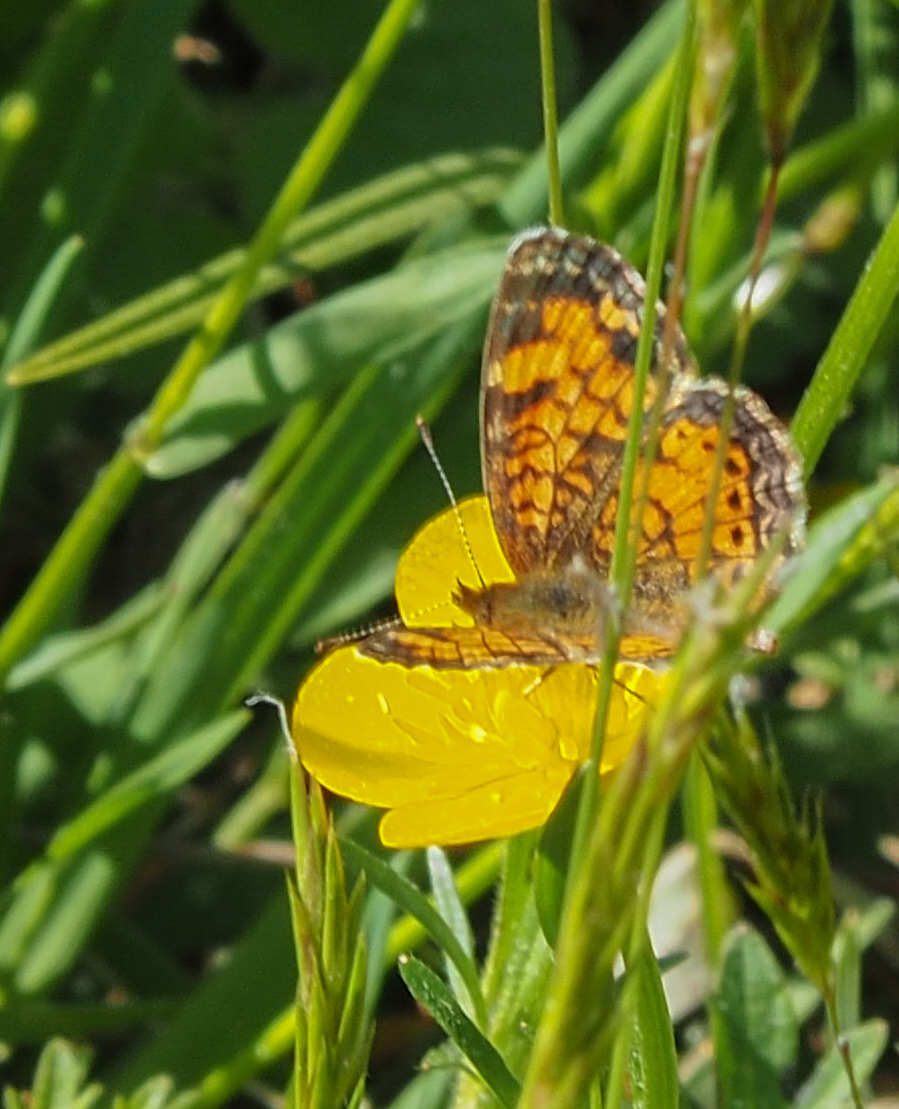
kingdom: Animalia
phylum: Arthropoda
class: Insecta
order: Lepidoptera
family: Nymphalidae
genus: Phyciodes
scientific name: Phyciodes tharos
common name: Pearl crescent
